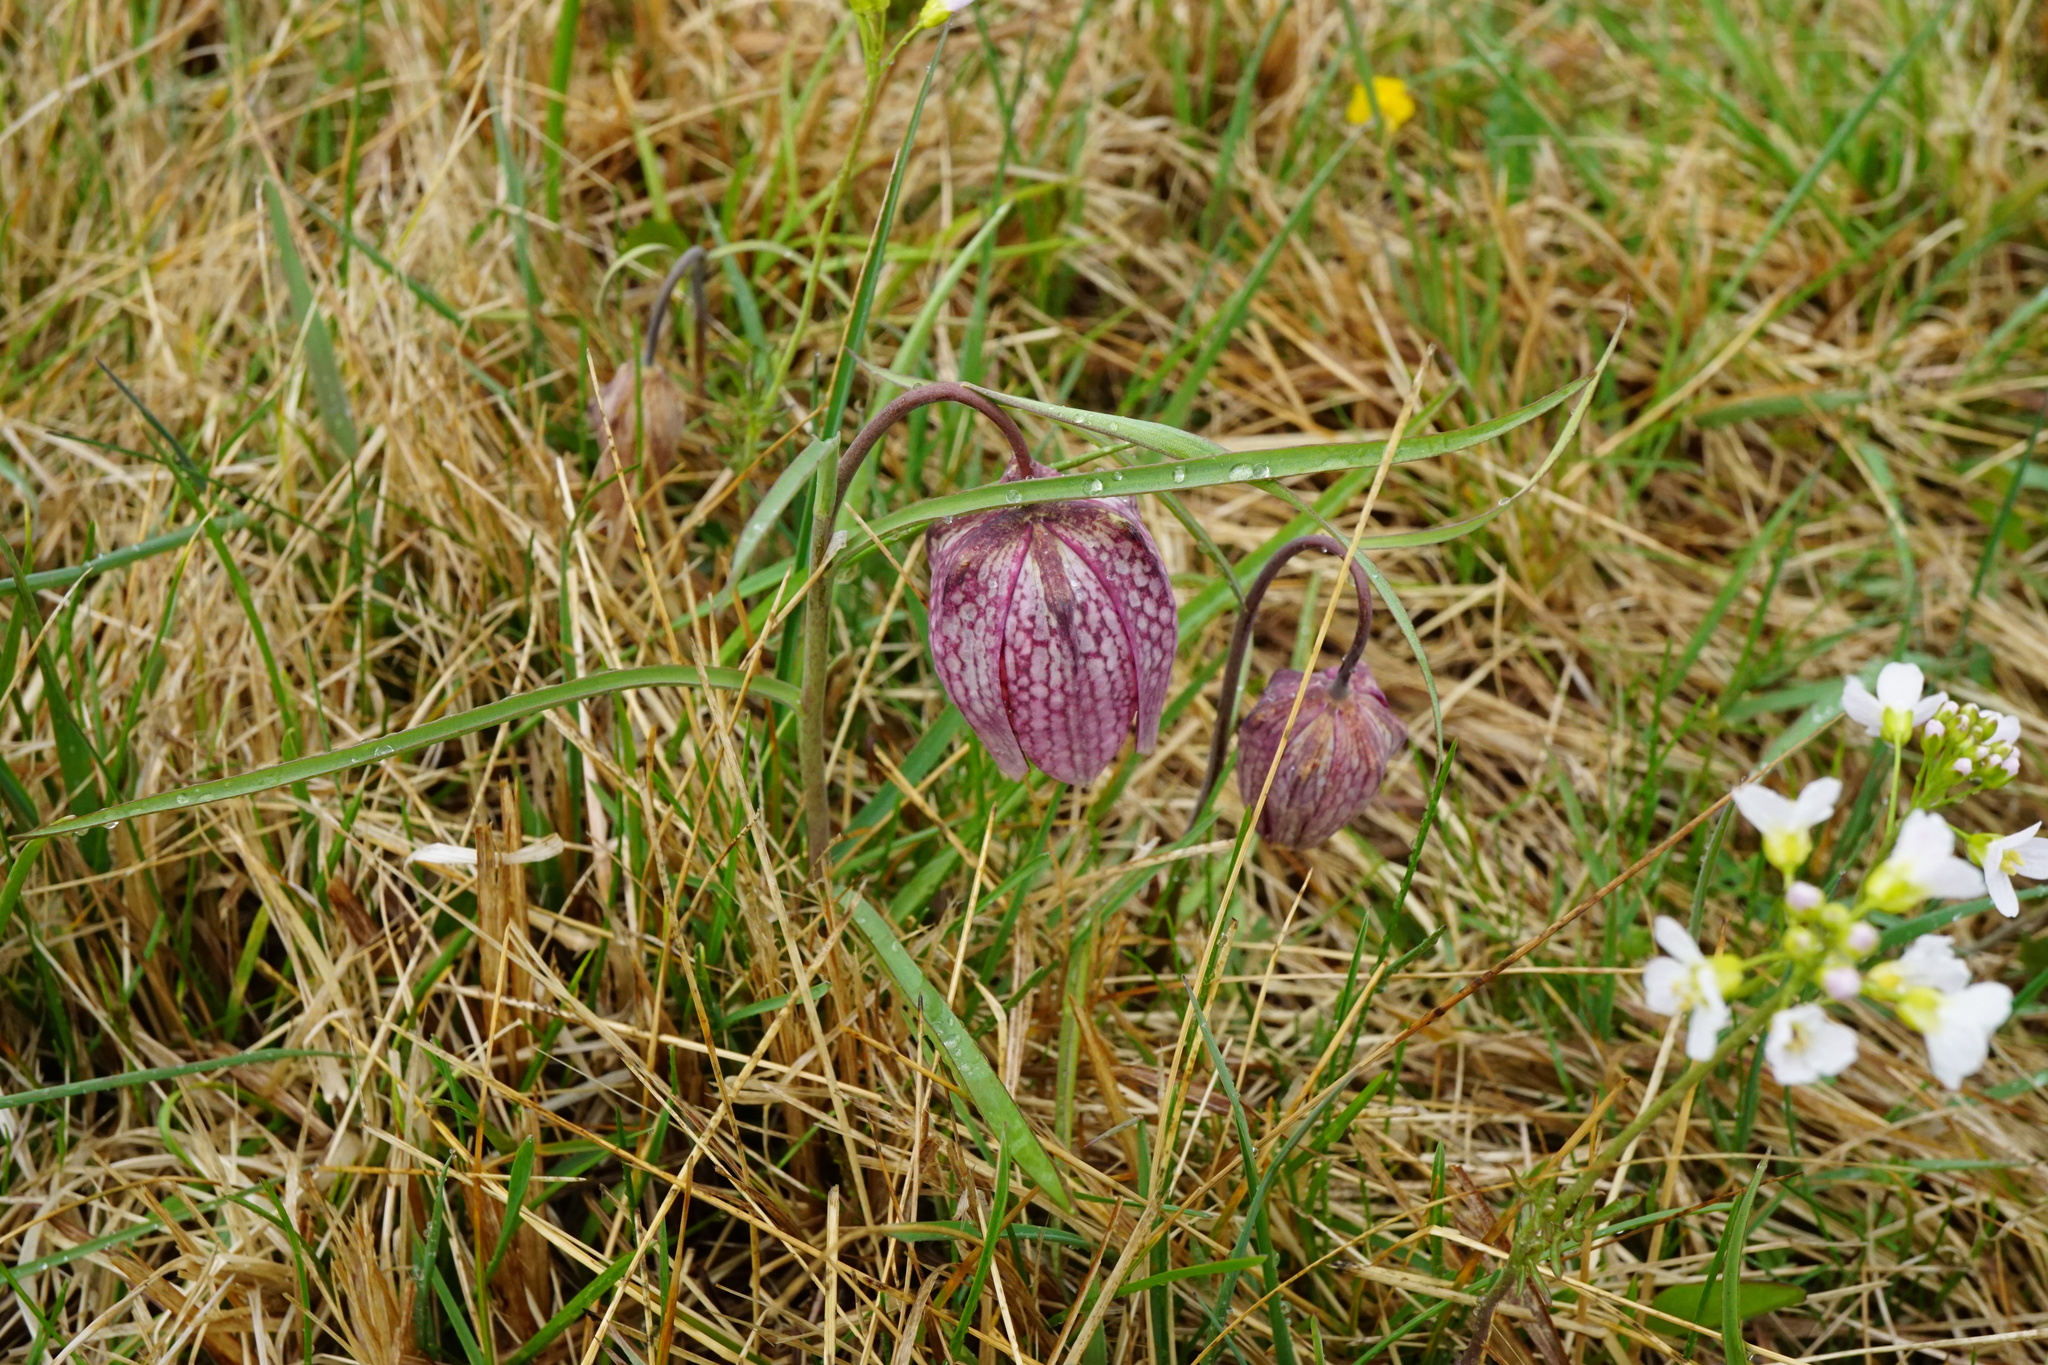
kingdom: Plantae
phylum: Tracheophyta
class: Liliopsida
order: Liliales
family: Liliaceae
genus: Fritillaria
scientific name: Fritillaria meleagris
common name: Fritillary
